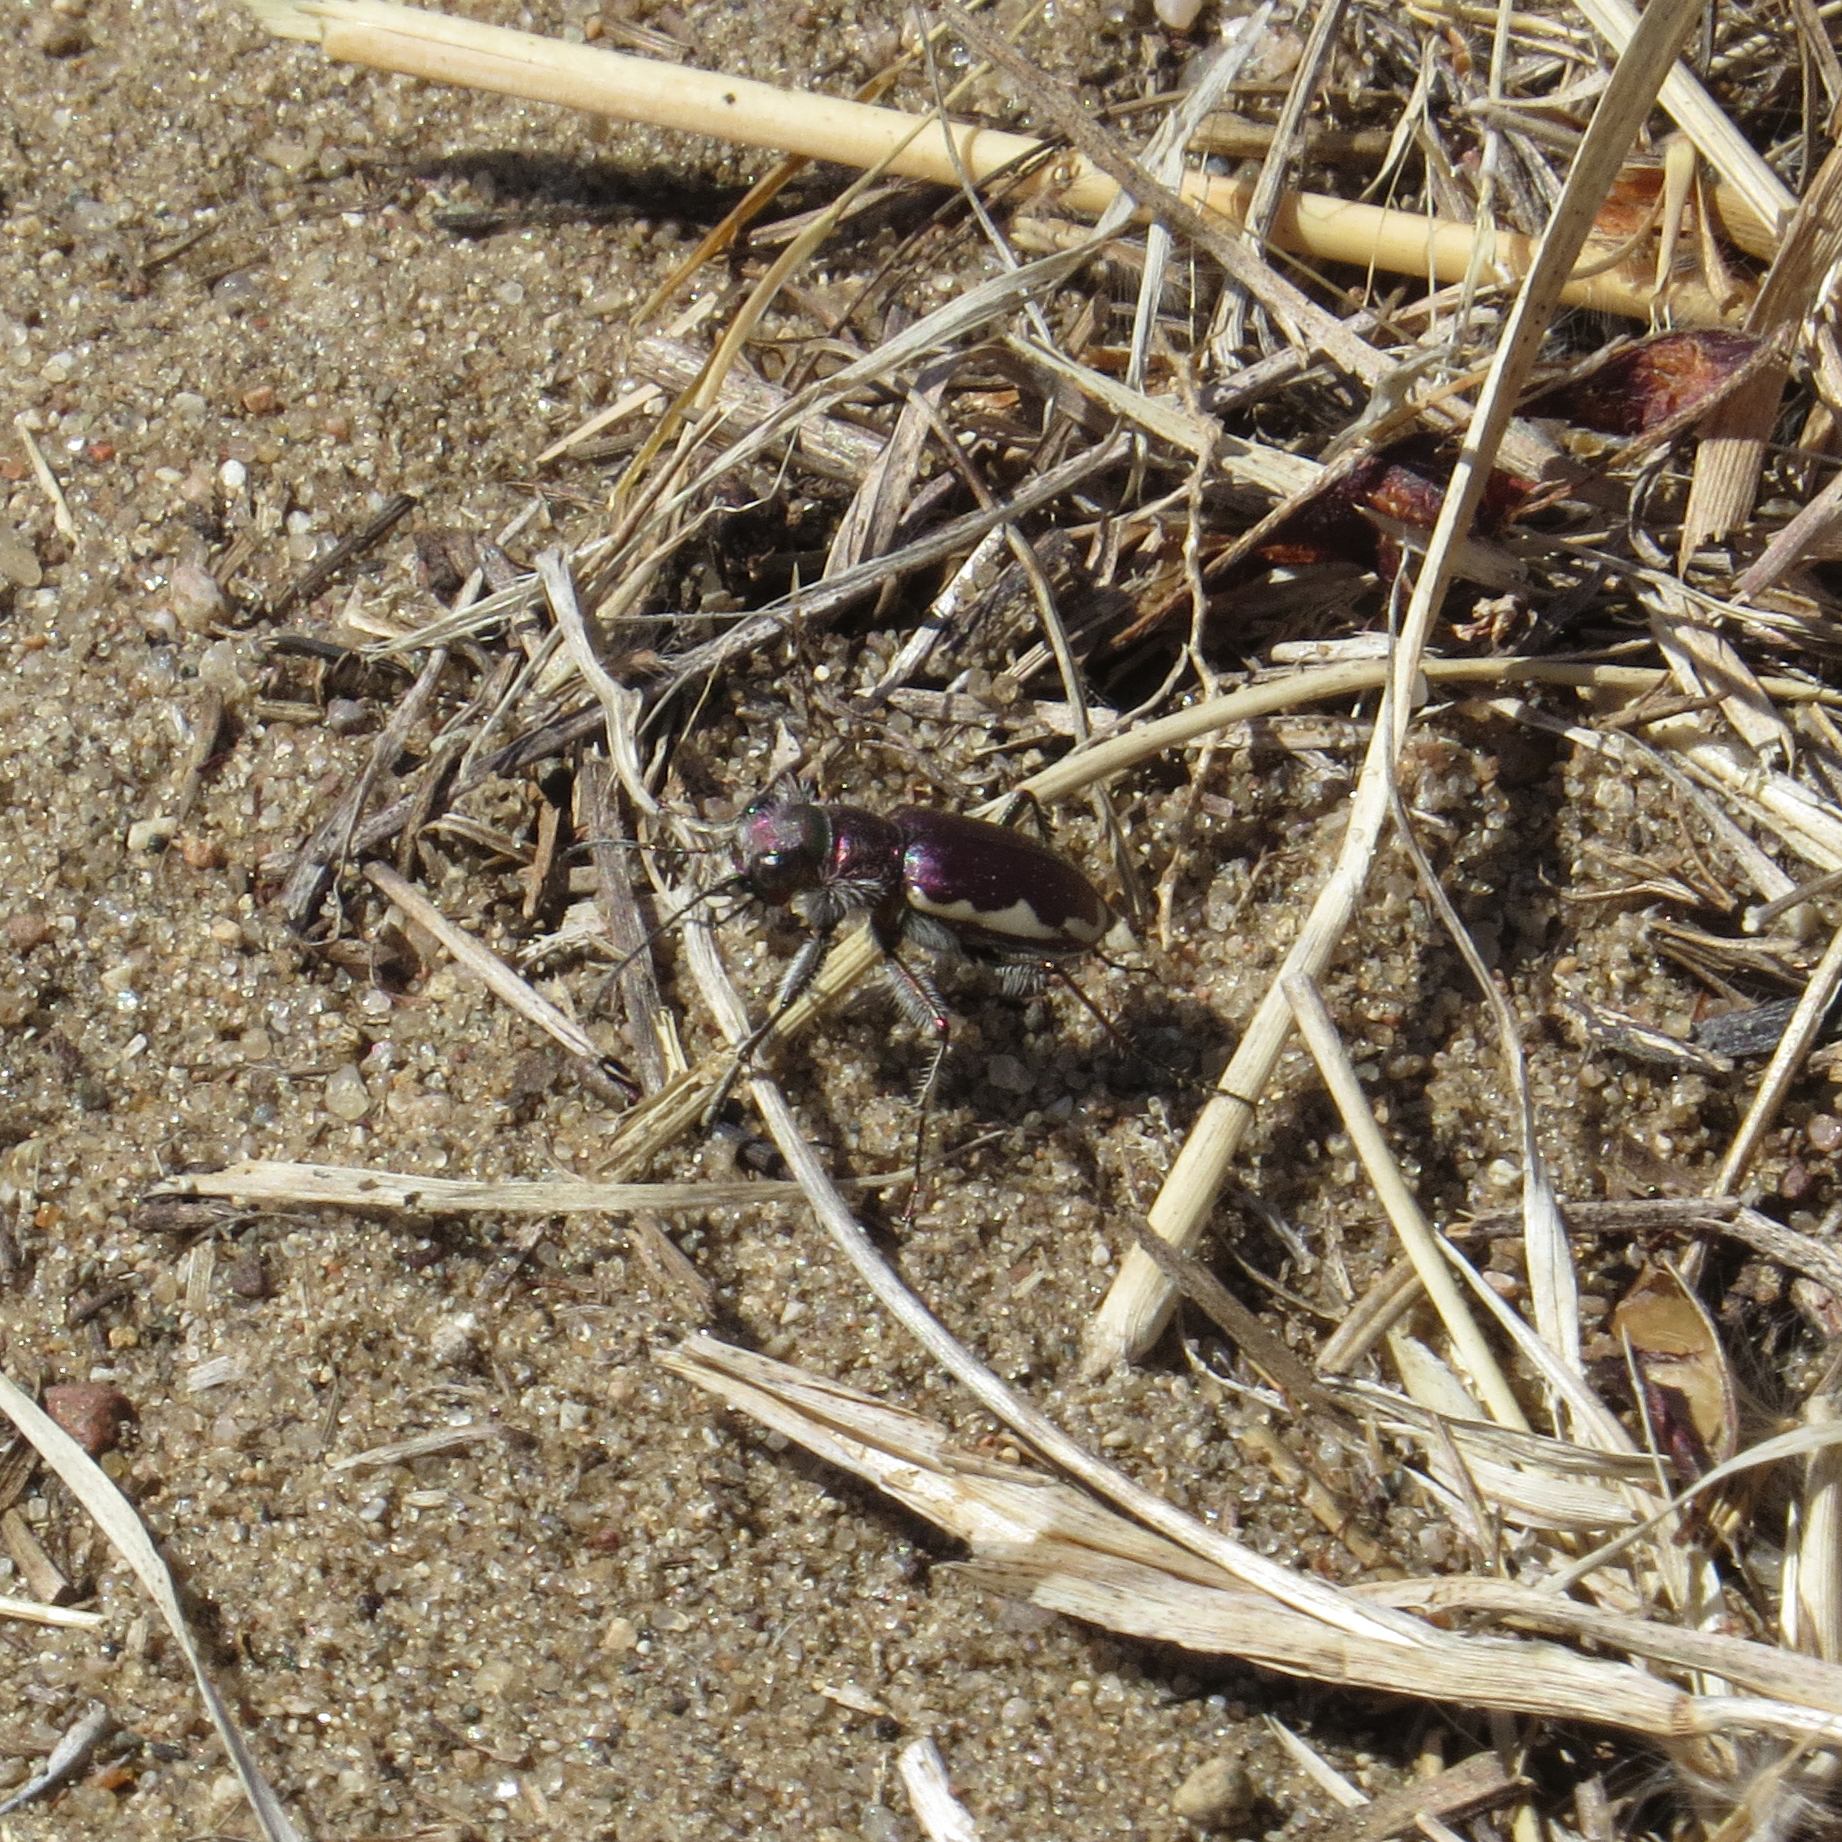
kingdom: Animalia
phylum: Arthropoda
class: Insecta
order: Coleoptera
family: Carabidae
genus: Cicindela
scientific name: Cicindela scutellaris
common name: Festive tiger beetle
